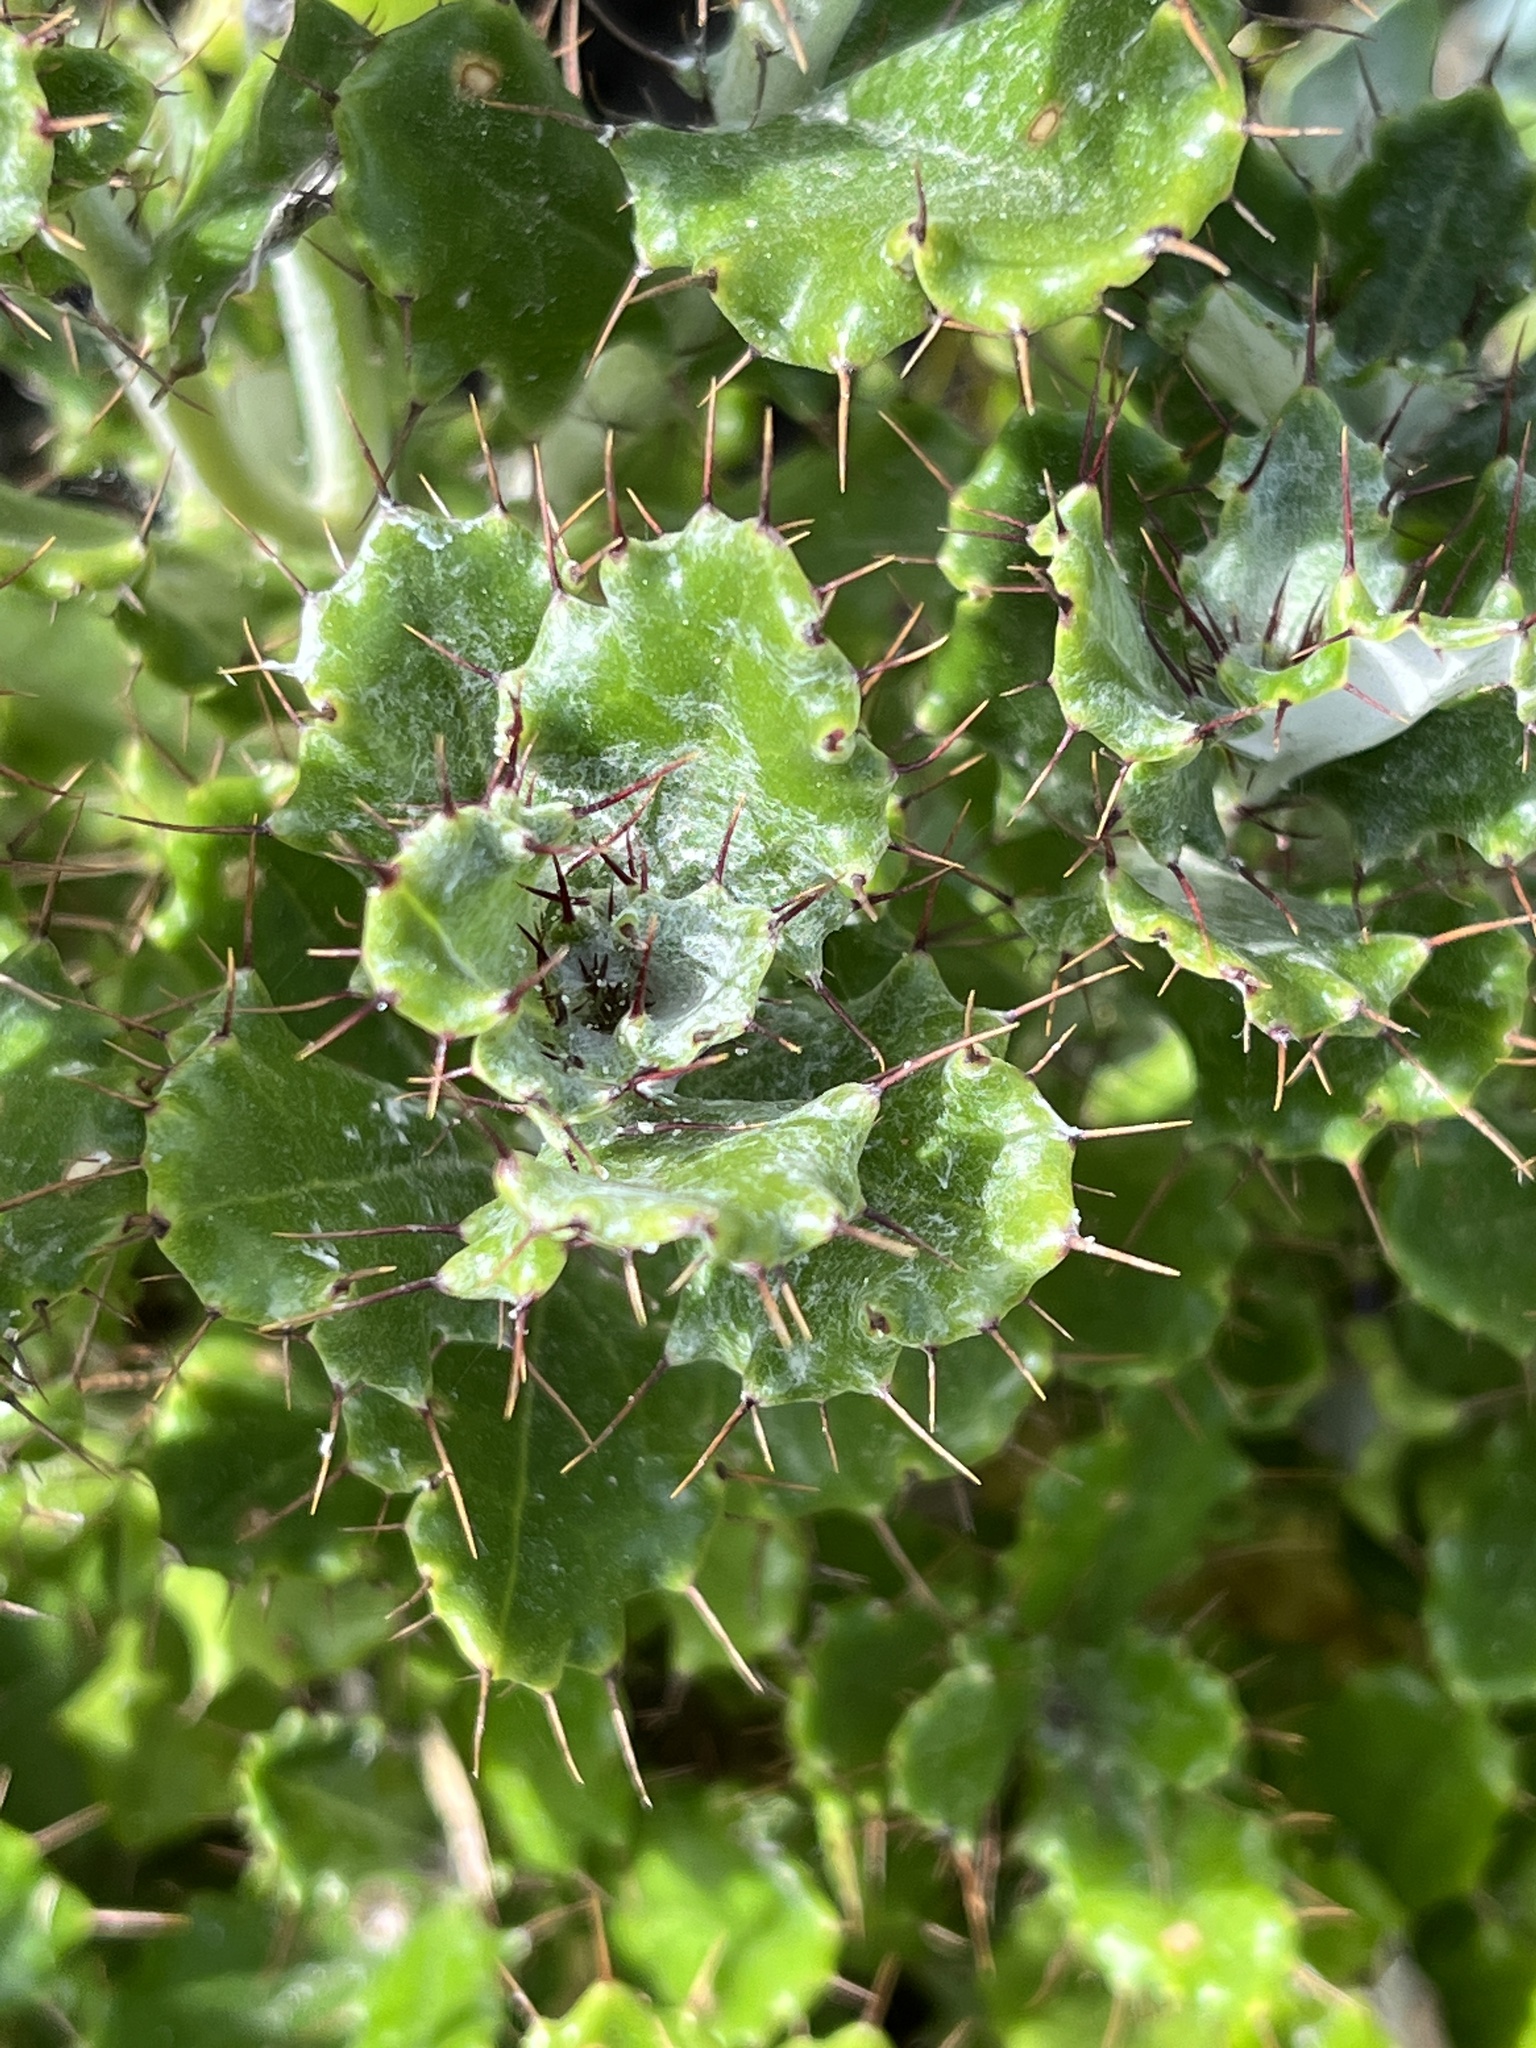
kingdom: Plantae
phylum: Tracheophyta
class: Magnoliopsida
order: Asterales
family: Asteraceae
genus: Berkheya
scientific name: Berkheya coriacea
